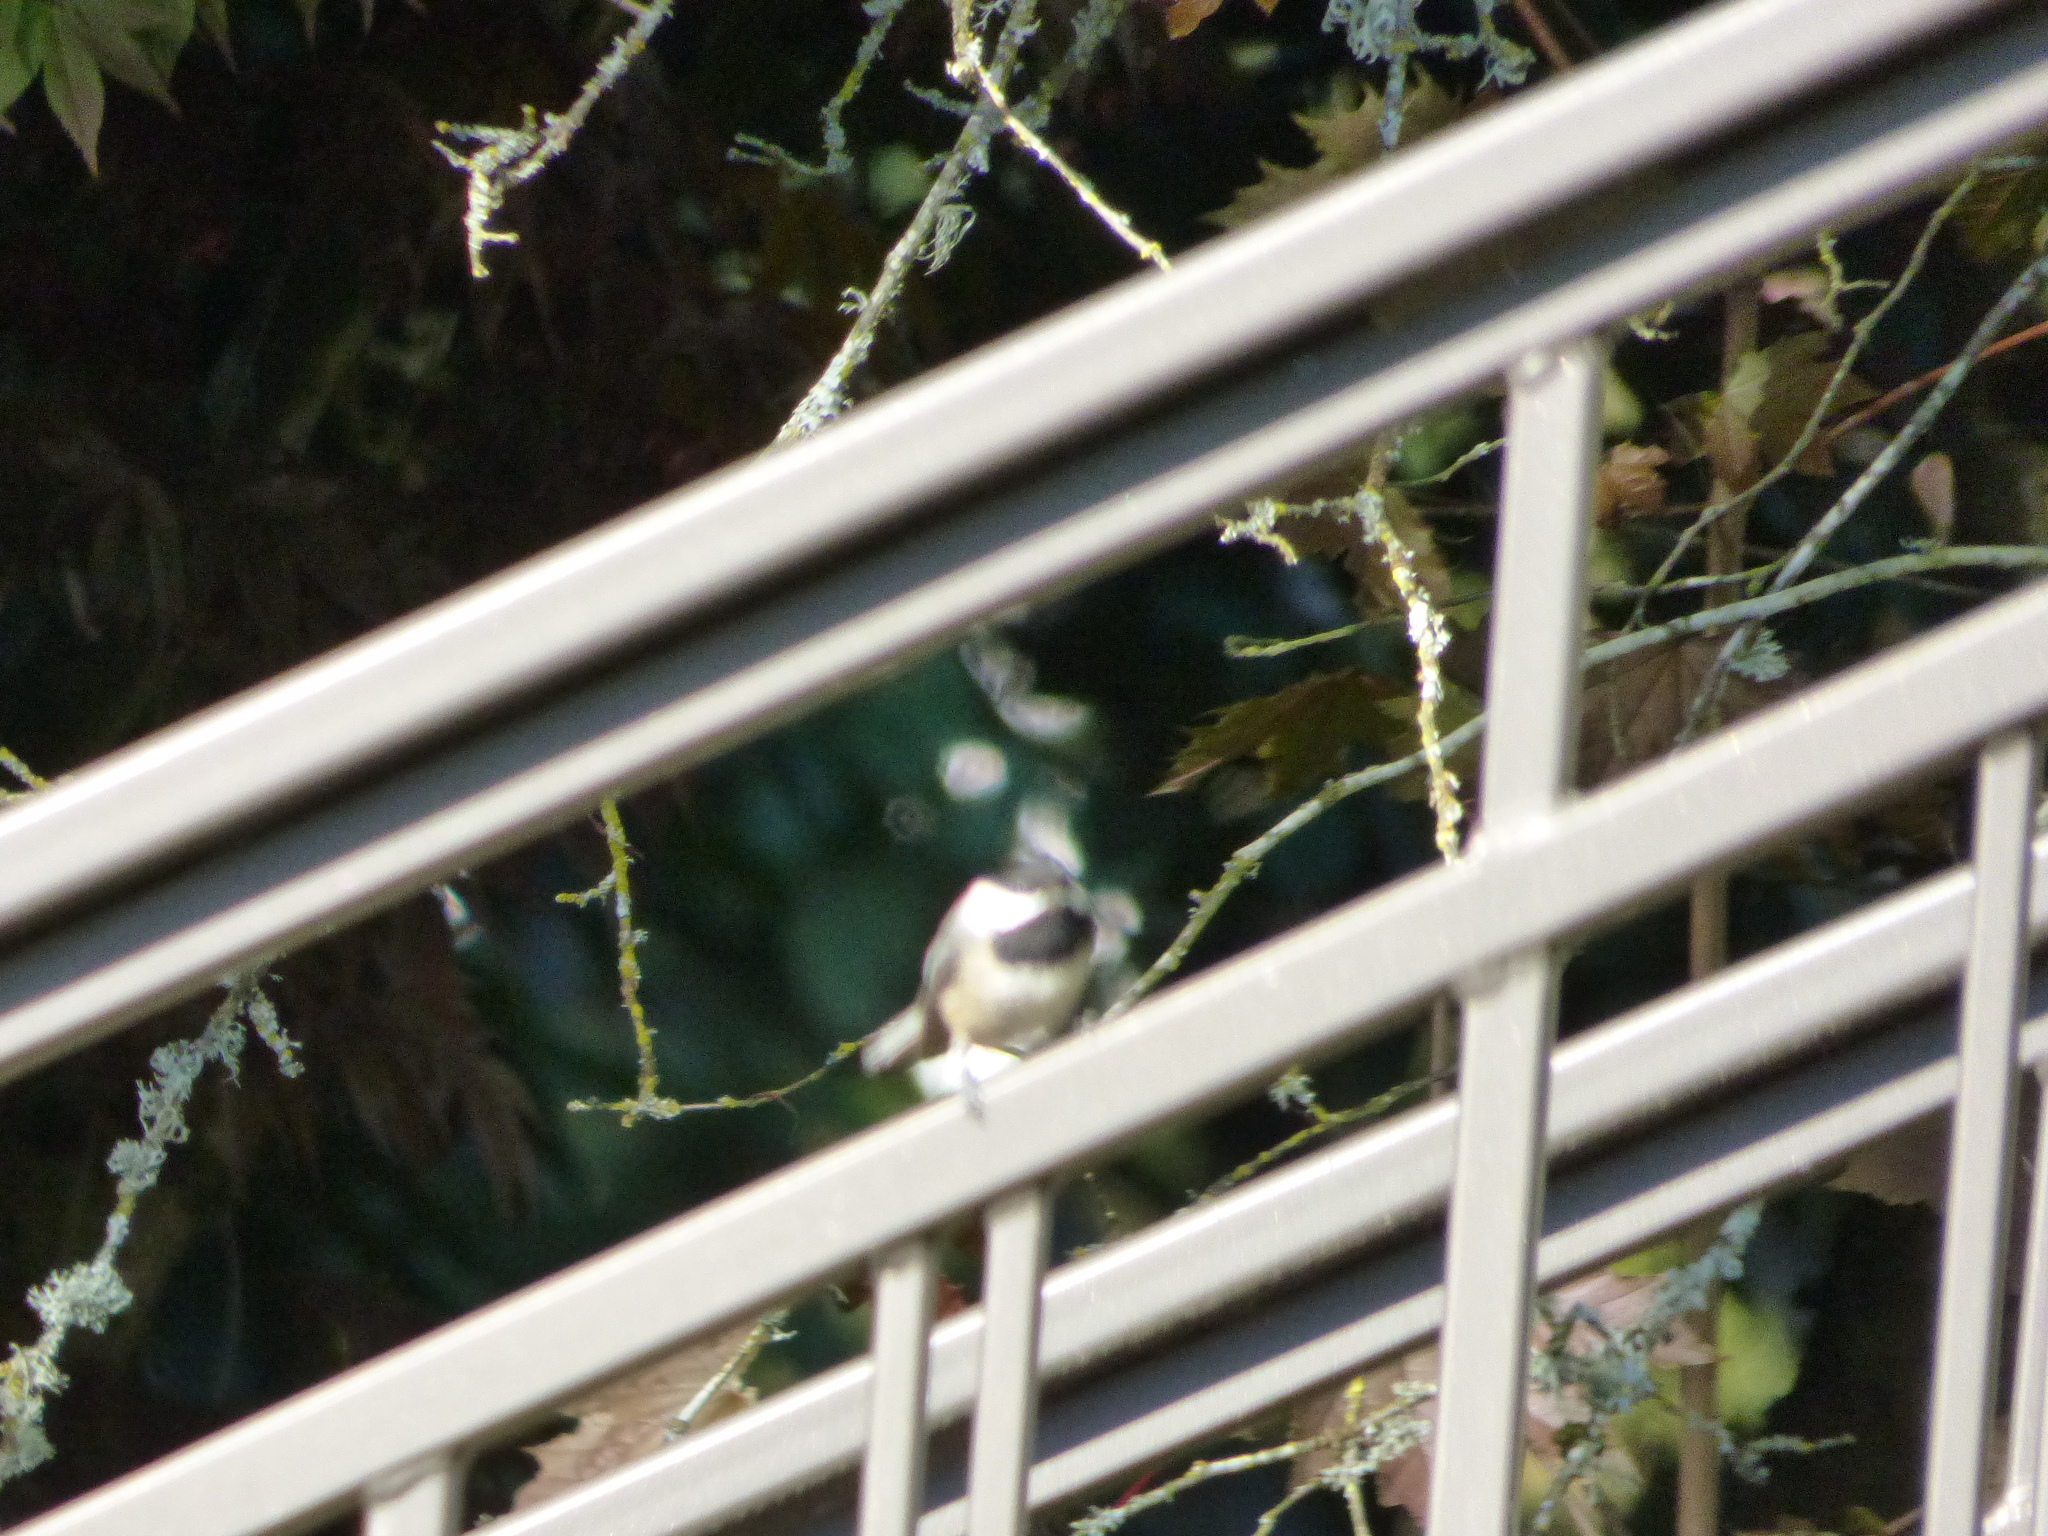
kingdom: Animalia
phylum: Chordata
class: Aves
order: Passeriformes
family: Paridae
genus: Poecile
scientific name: Poecile atricapillus
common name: Black-capped chickadee
